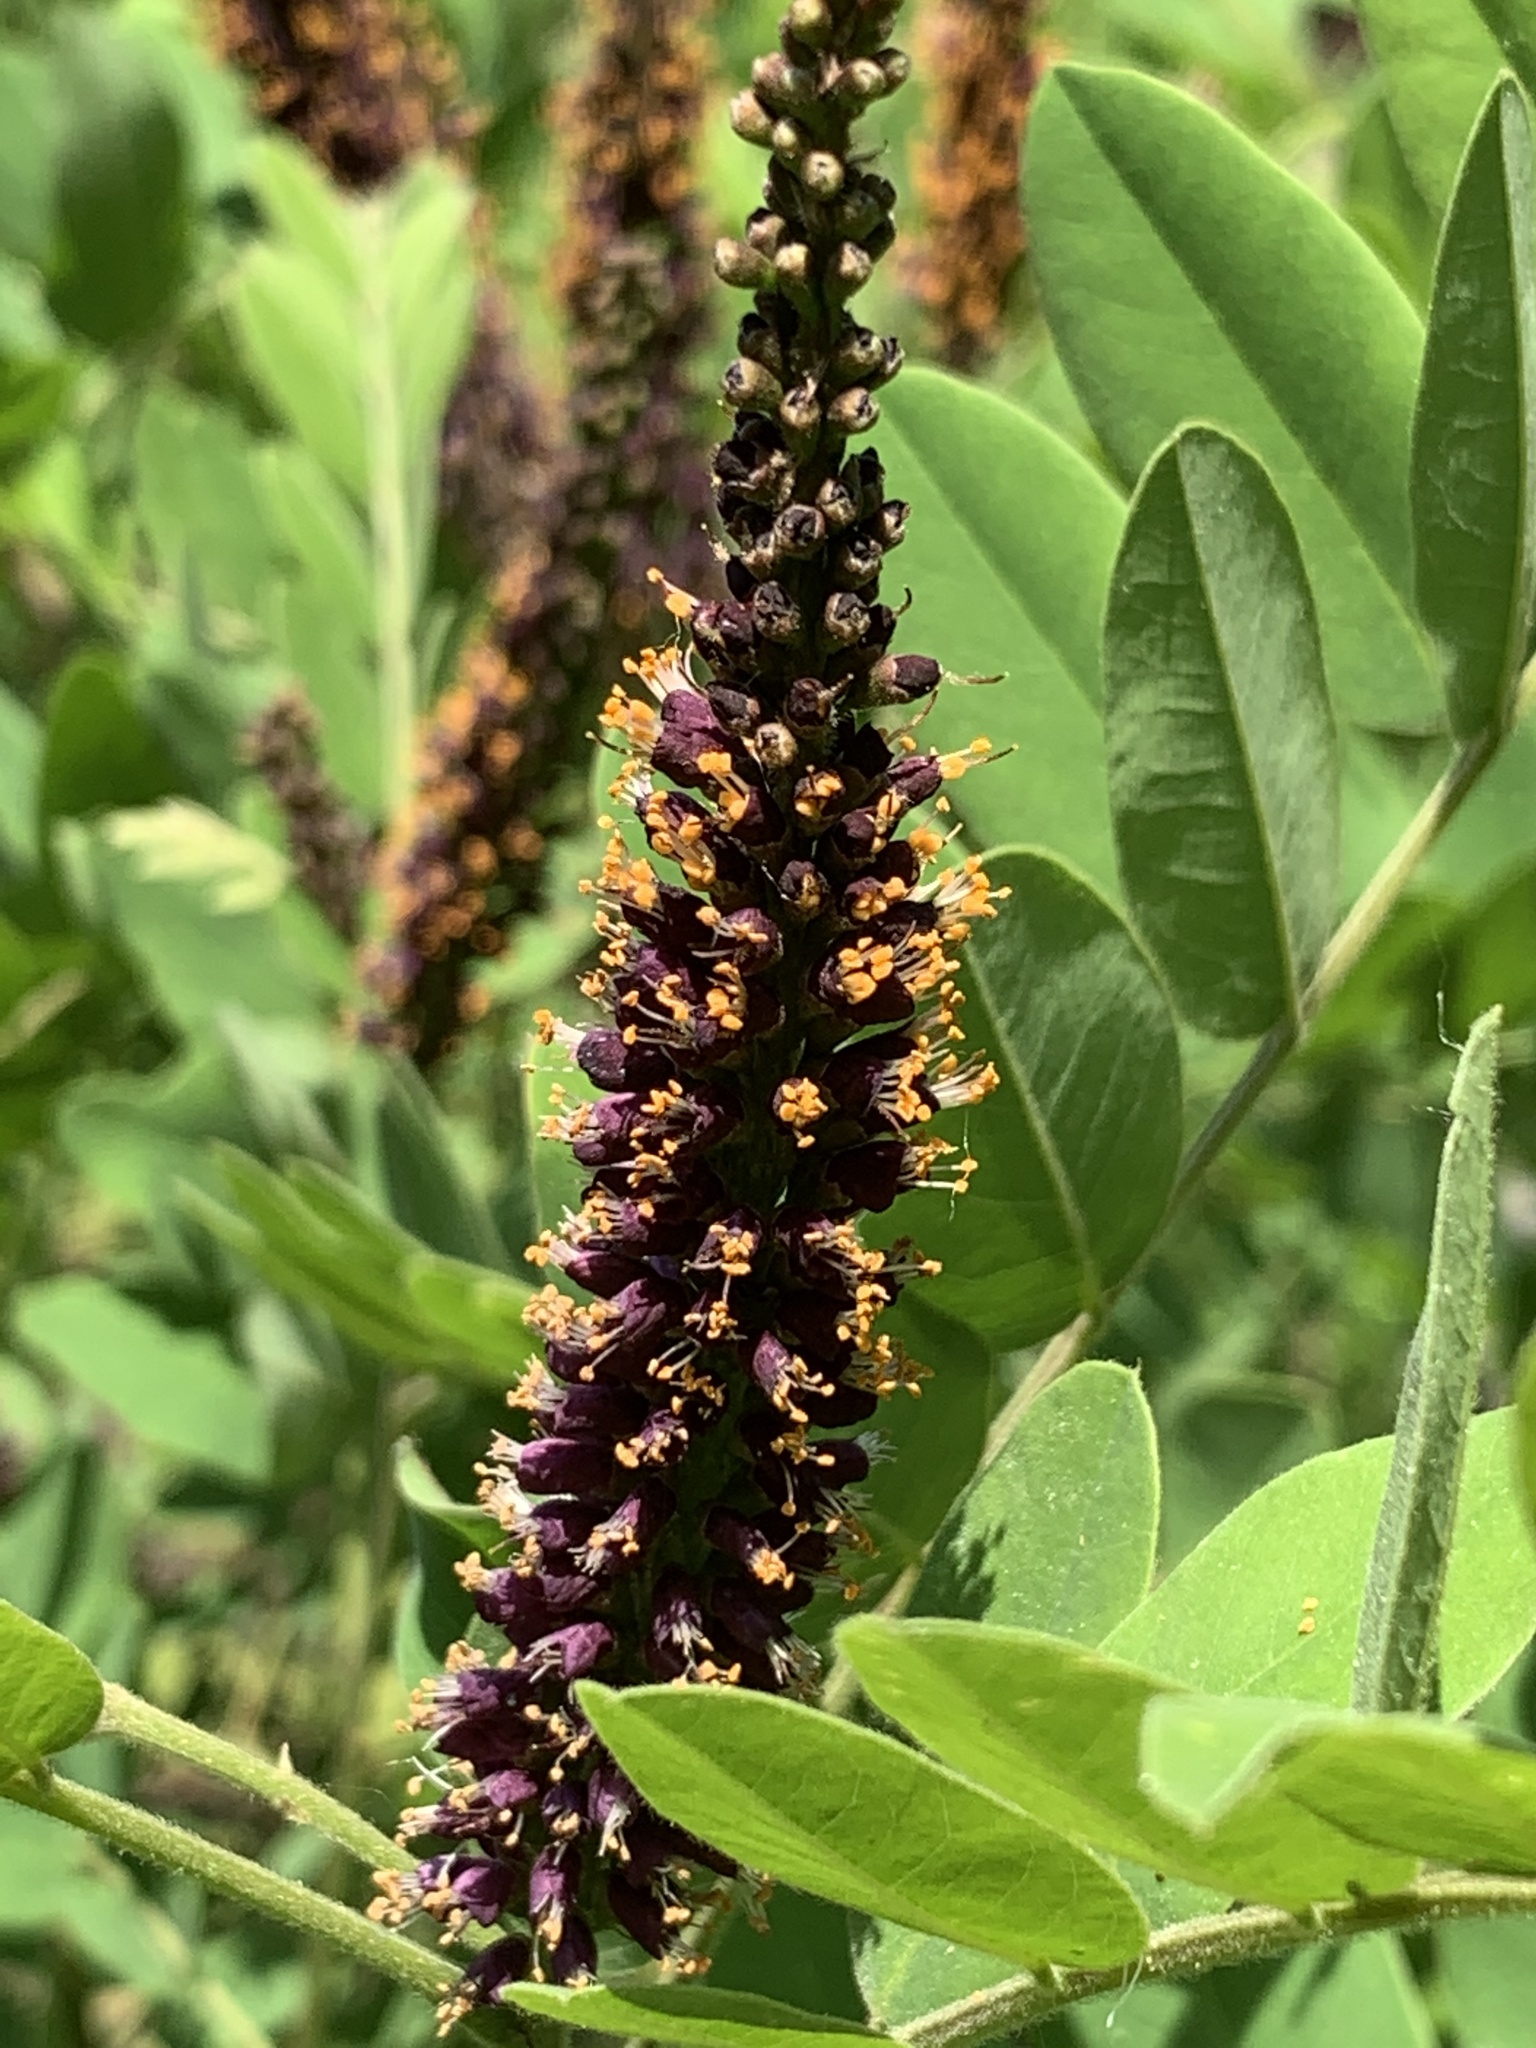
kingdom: Plantae
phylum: Tracheophyta
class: Magnoliopsida
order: Fabales
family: Fabaceae
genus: Amorpha
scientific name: Amorpha fruticosa
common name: False indigo
